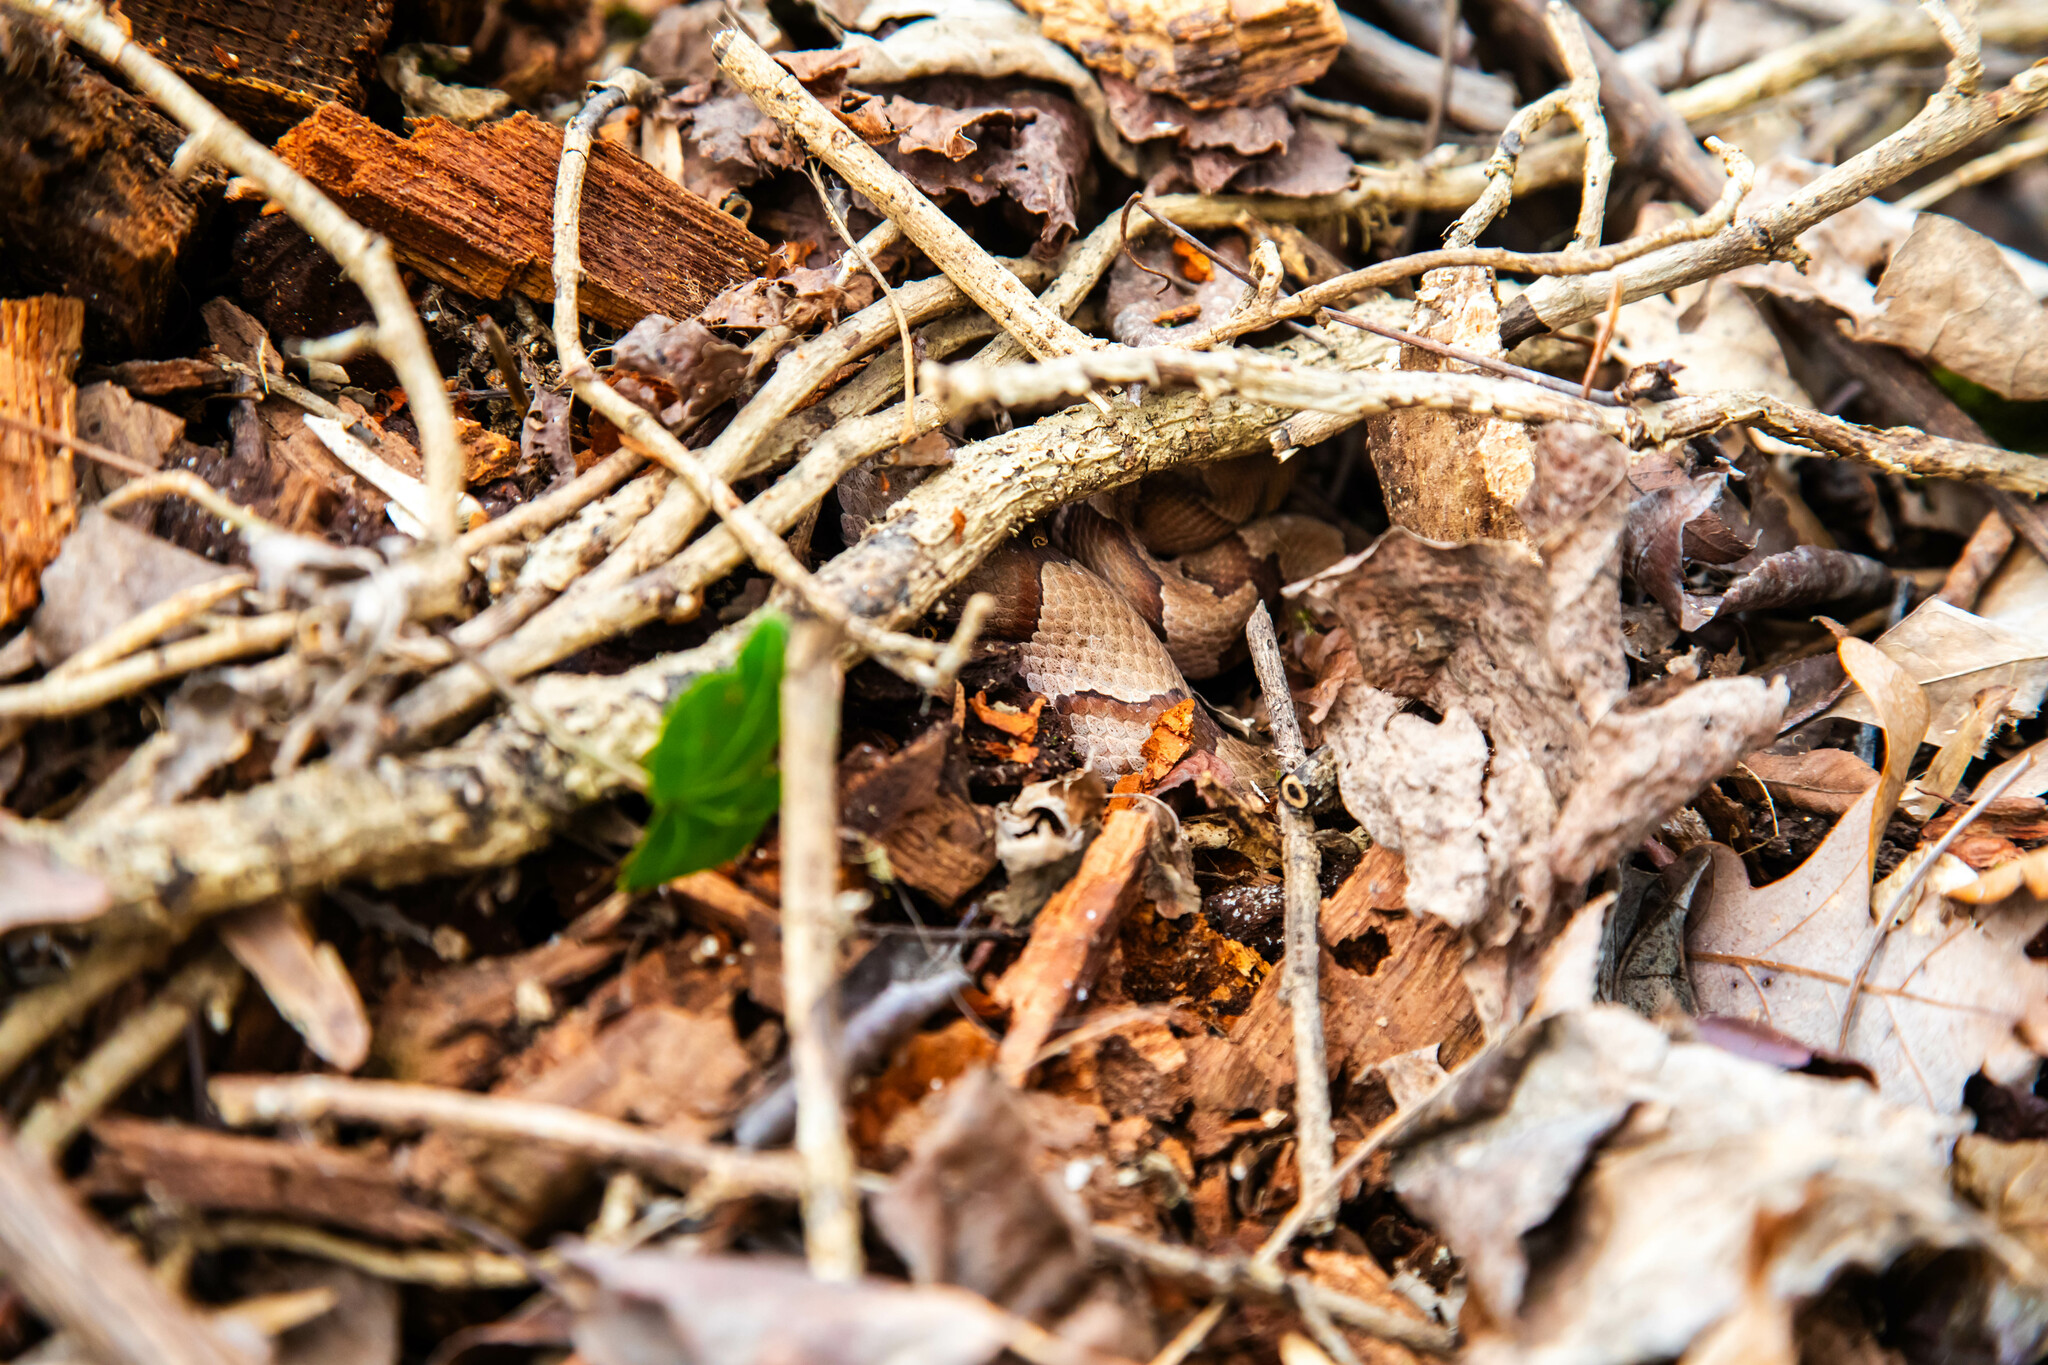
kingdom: Animalia
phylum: Chordata
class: Squamata
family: Viperidae
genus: Agkistrodon
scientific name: Agkistrodon contortrix
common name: Northern copperhead
